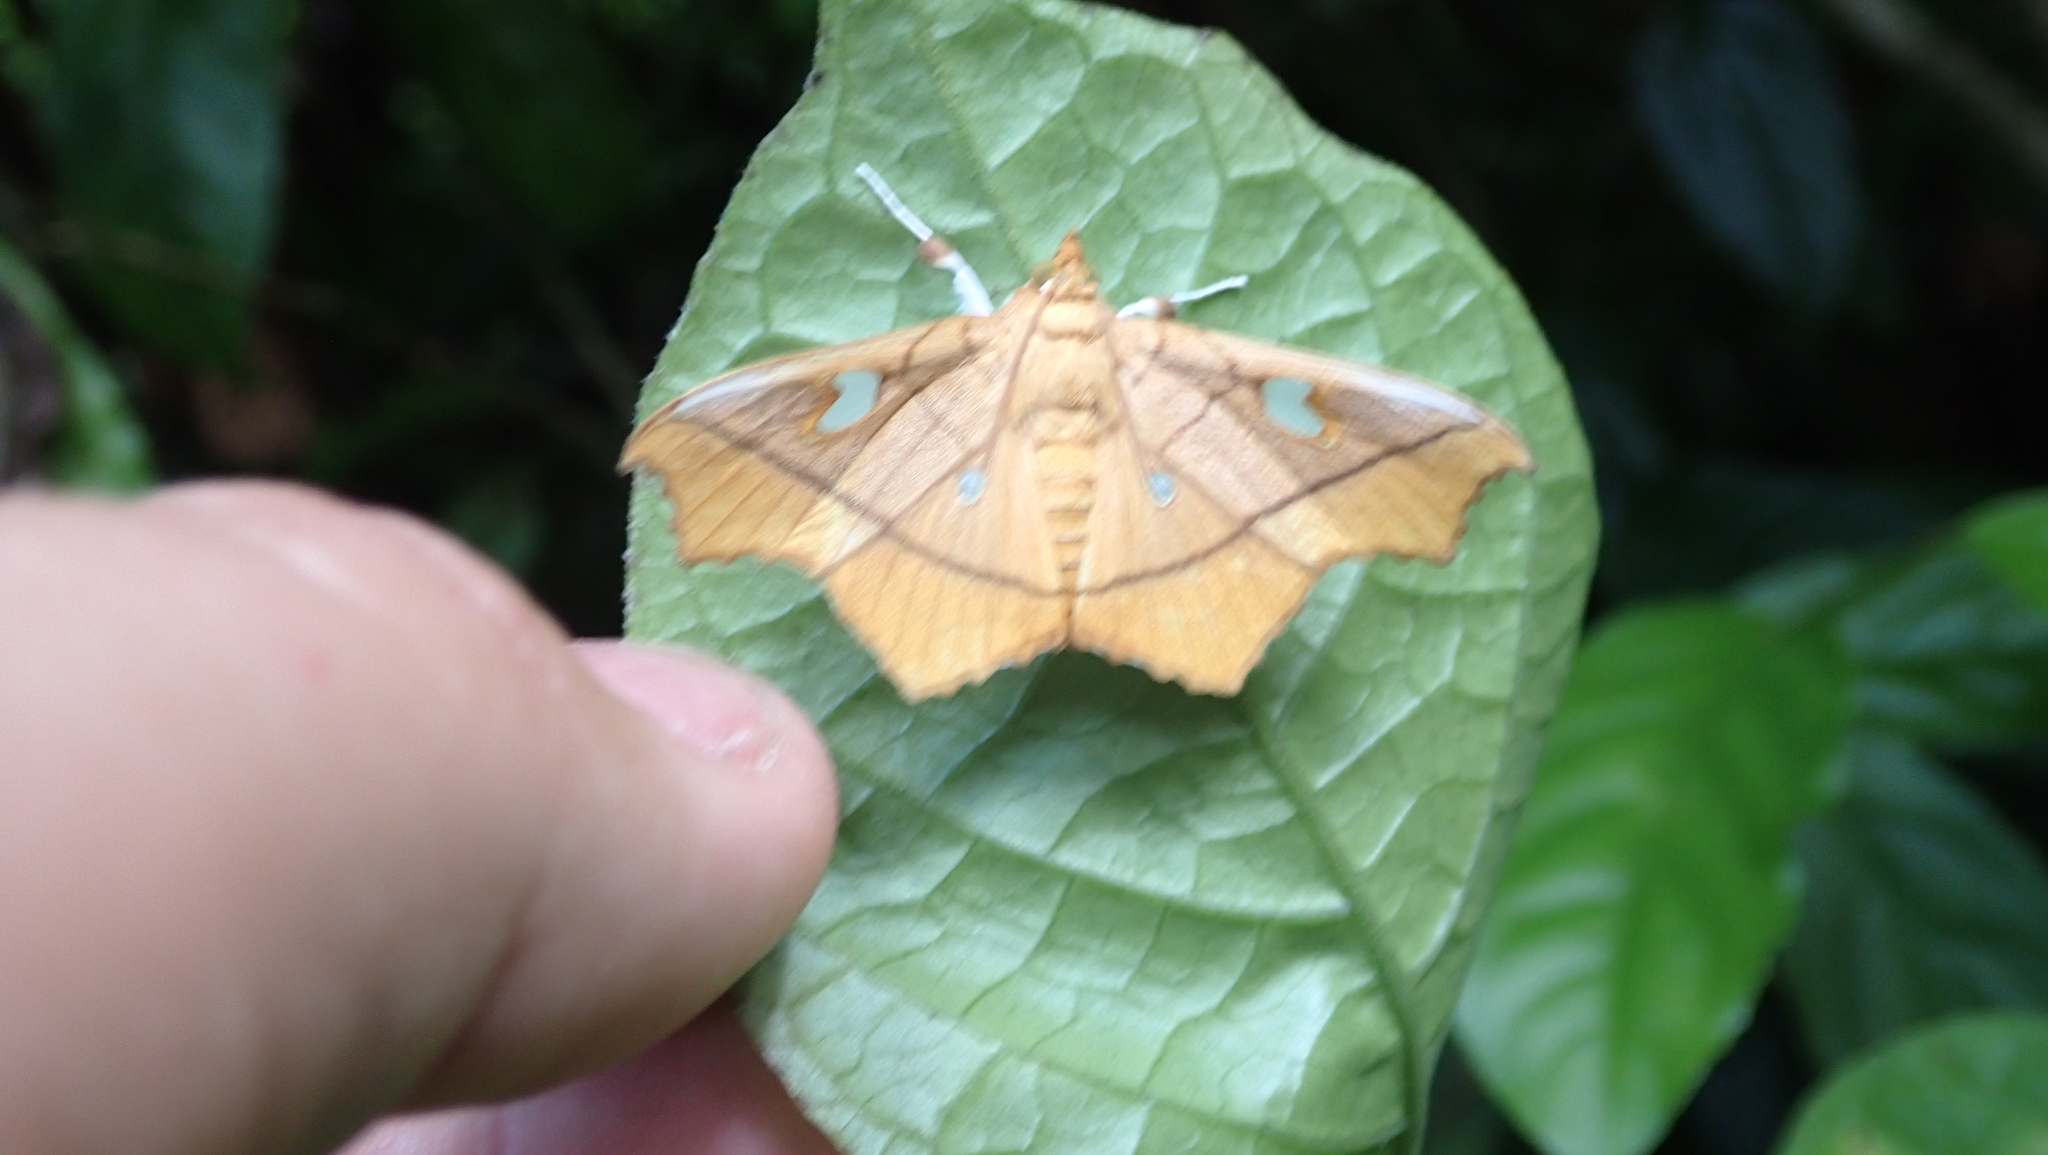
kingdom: Animalia
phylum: Arthropoda
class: Insecta
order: Lepidoptera
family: Crambidae
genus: Midila
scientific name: Midila soror
